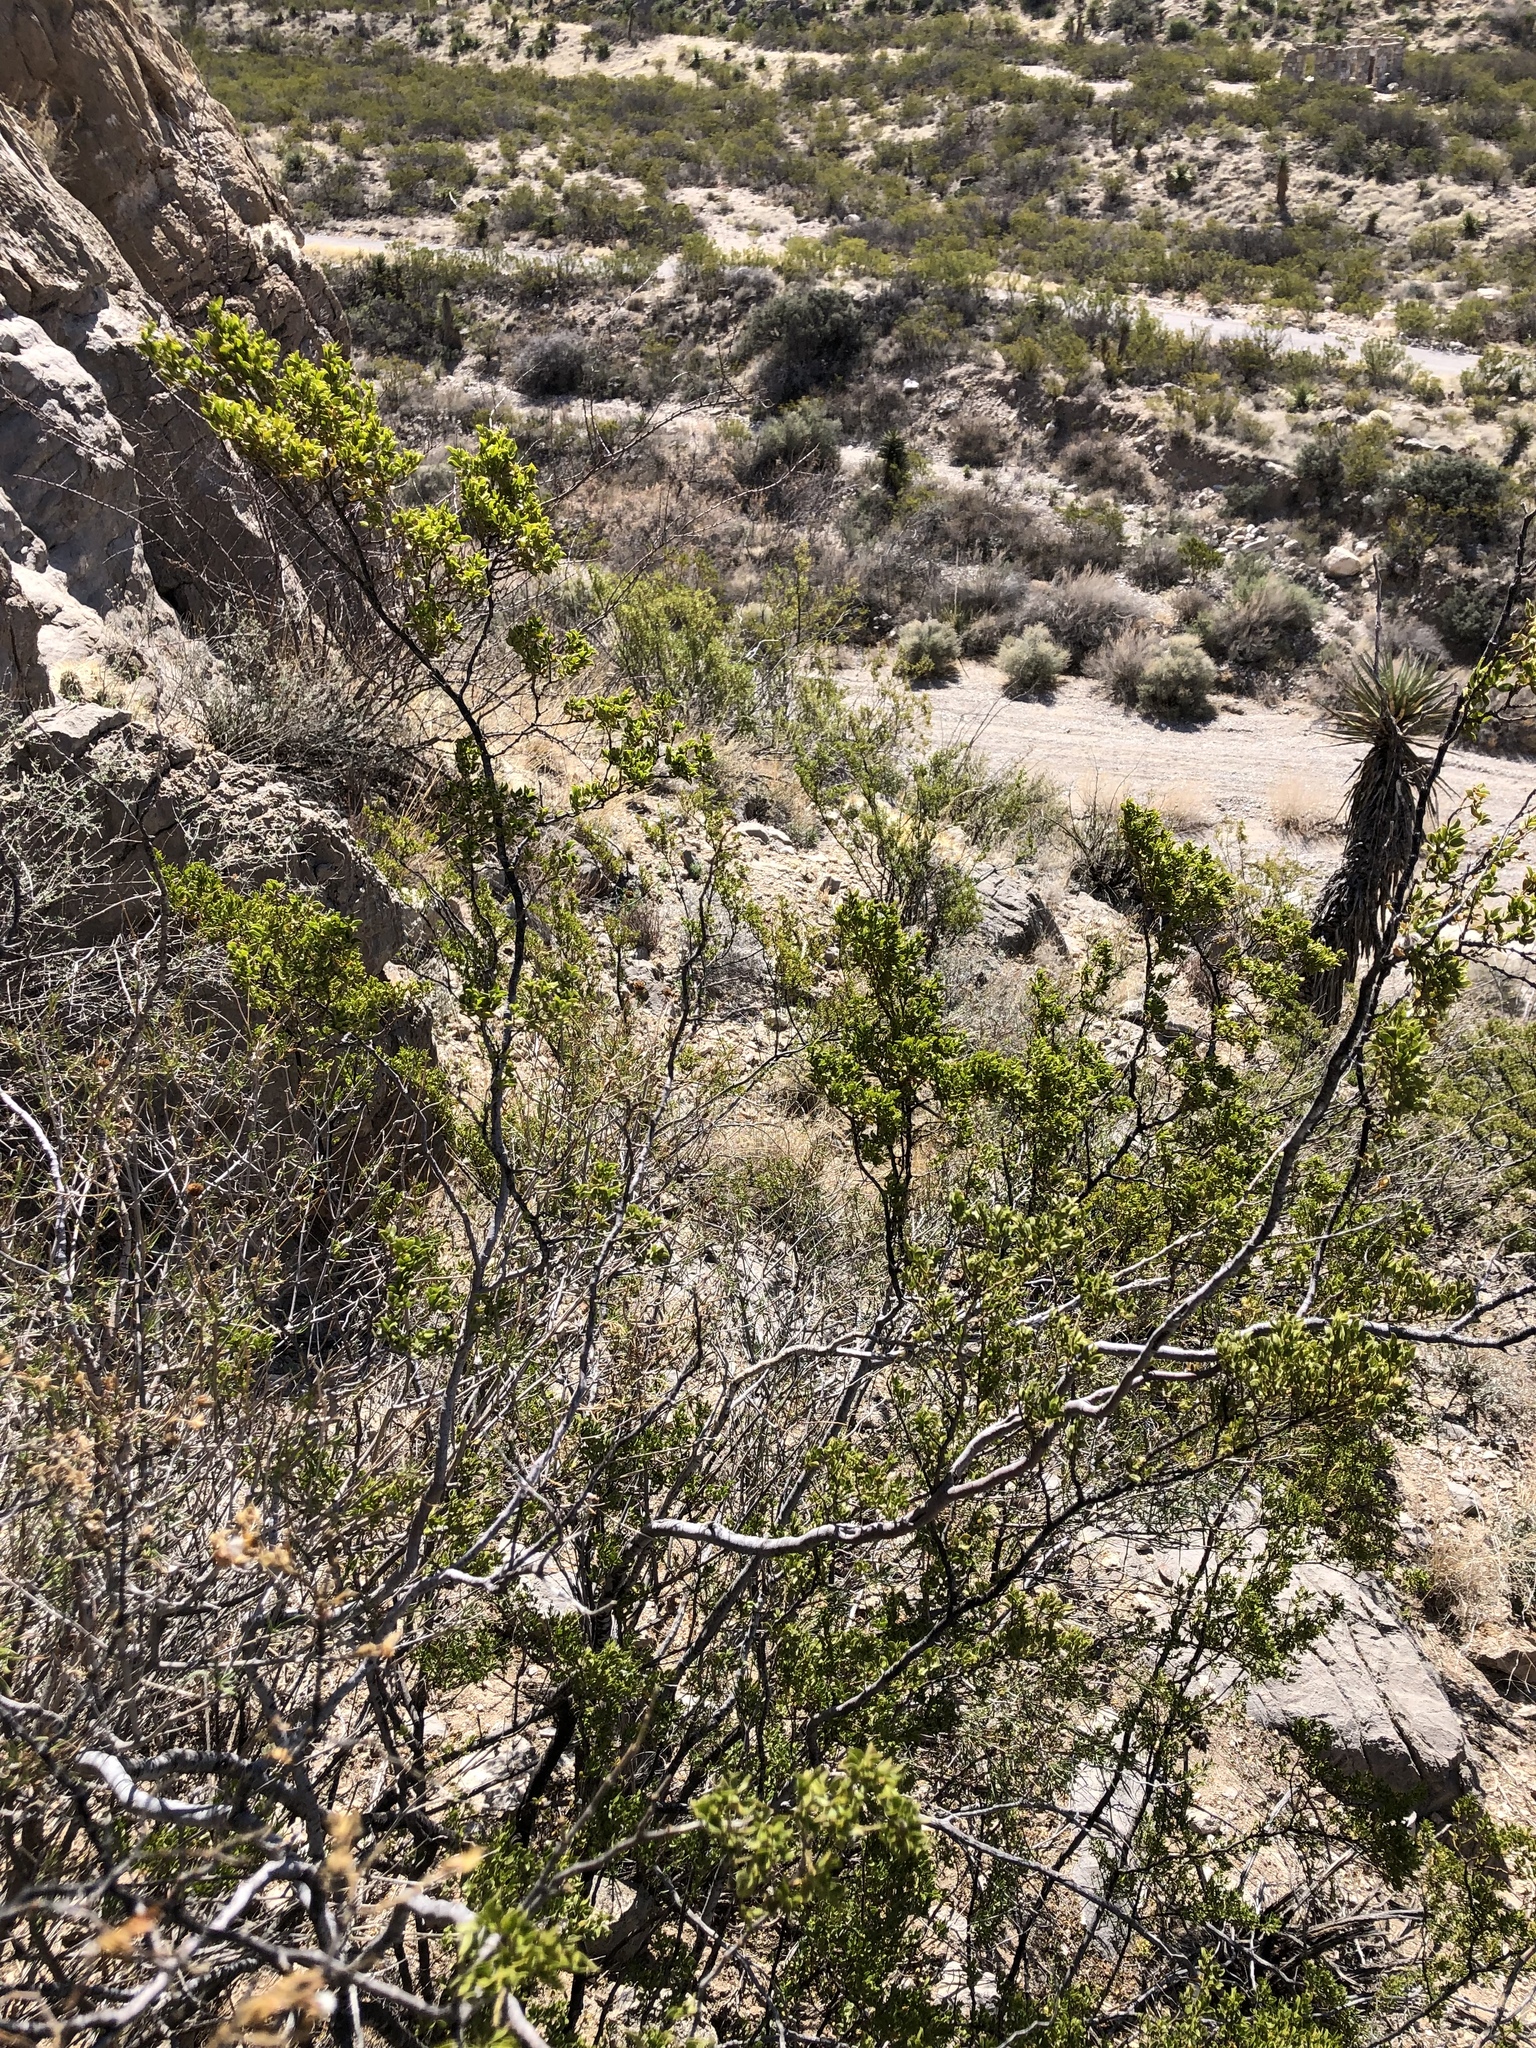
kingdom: Plantae
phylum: Tracheophyta
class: Magnoliopsida
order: Zygophyllales
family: Zygophyllaceae
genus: Larrea
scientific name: Larrea tridentata
